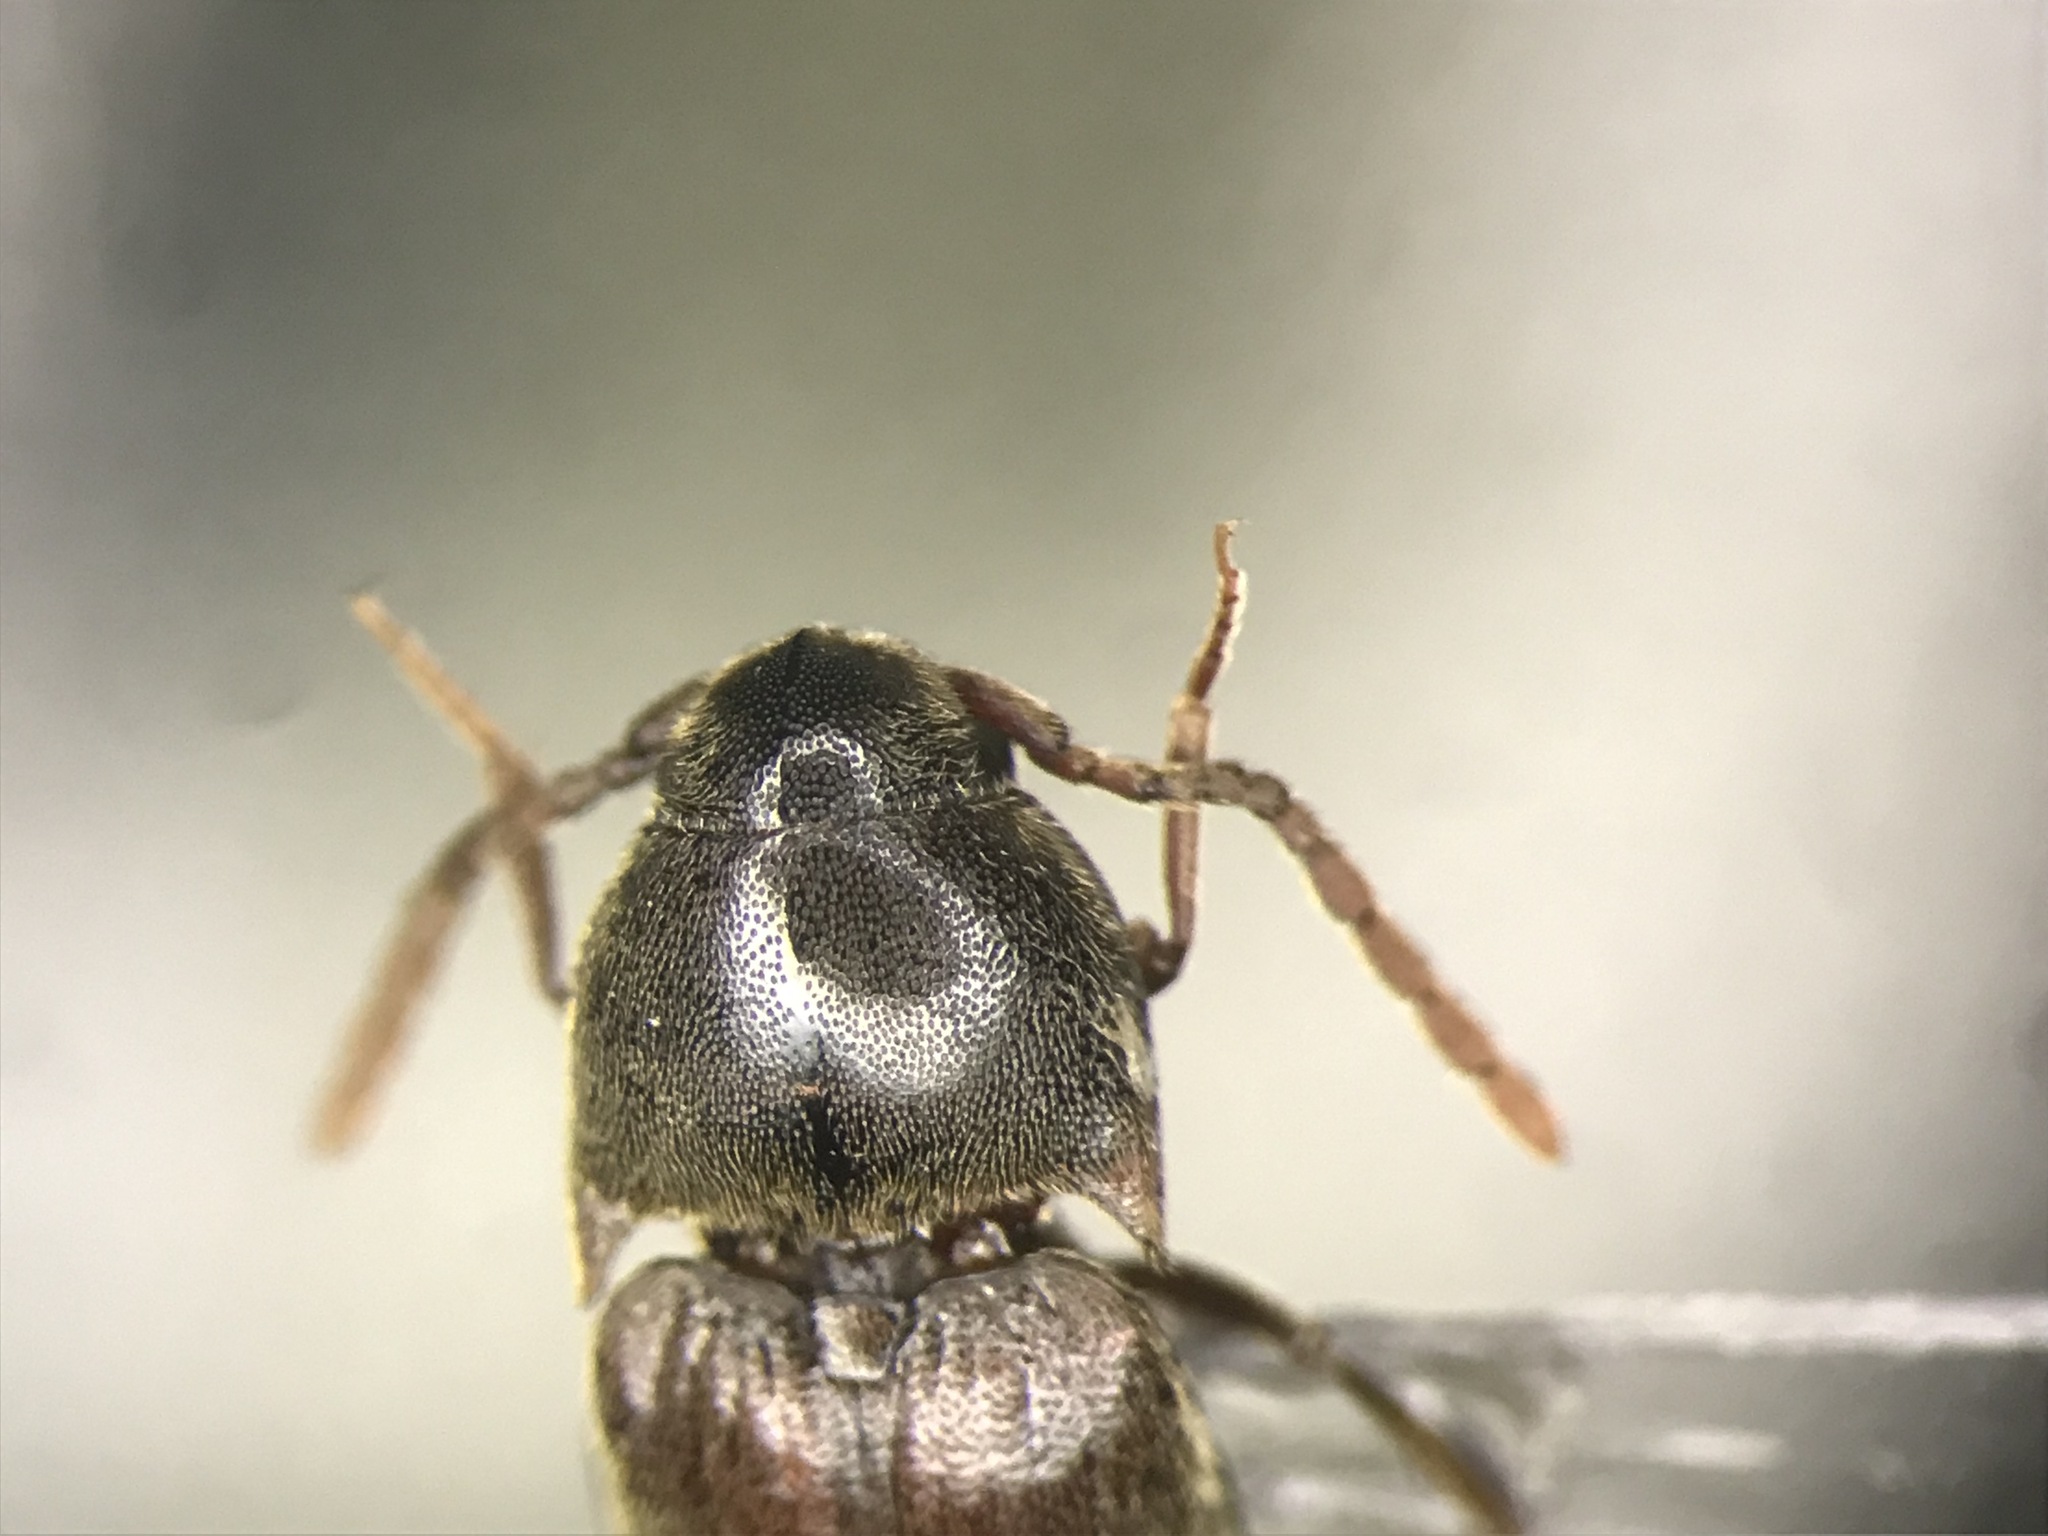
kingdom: Animalia
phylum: Arthropoda
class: Insecta
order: Coleoptera
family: Eucnemidae
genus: Epiphanis
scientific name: Epiphanis cornutus
